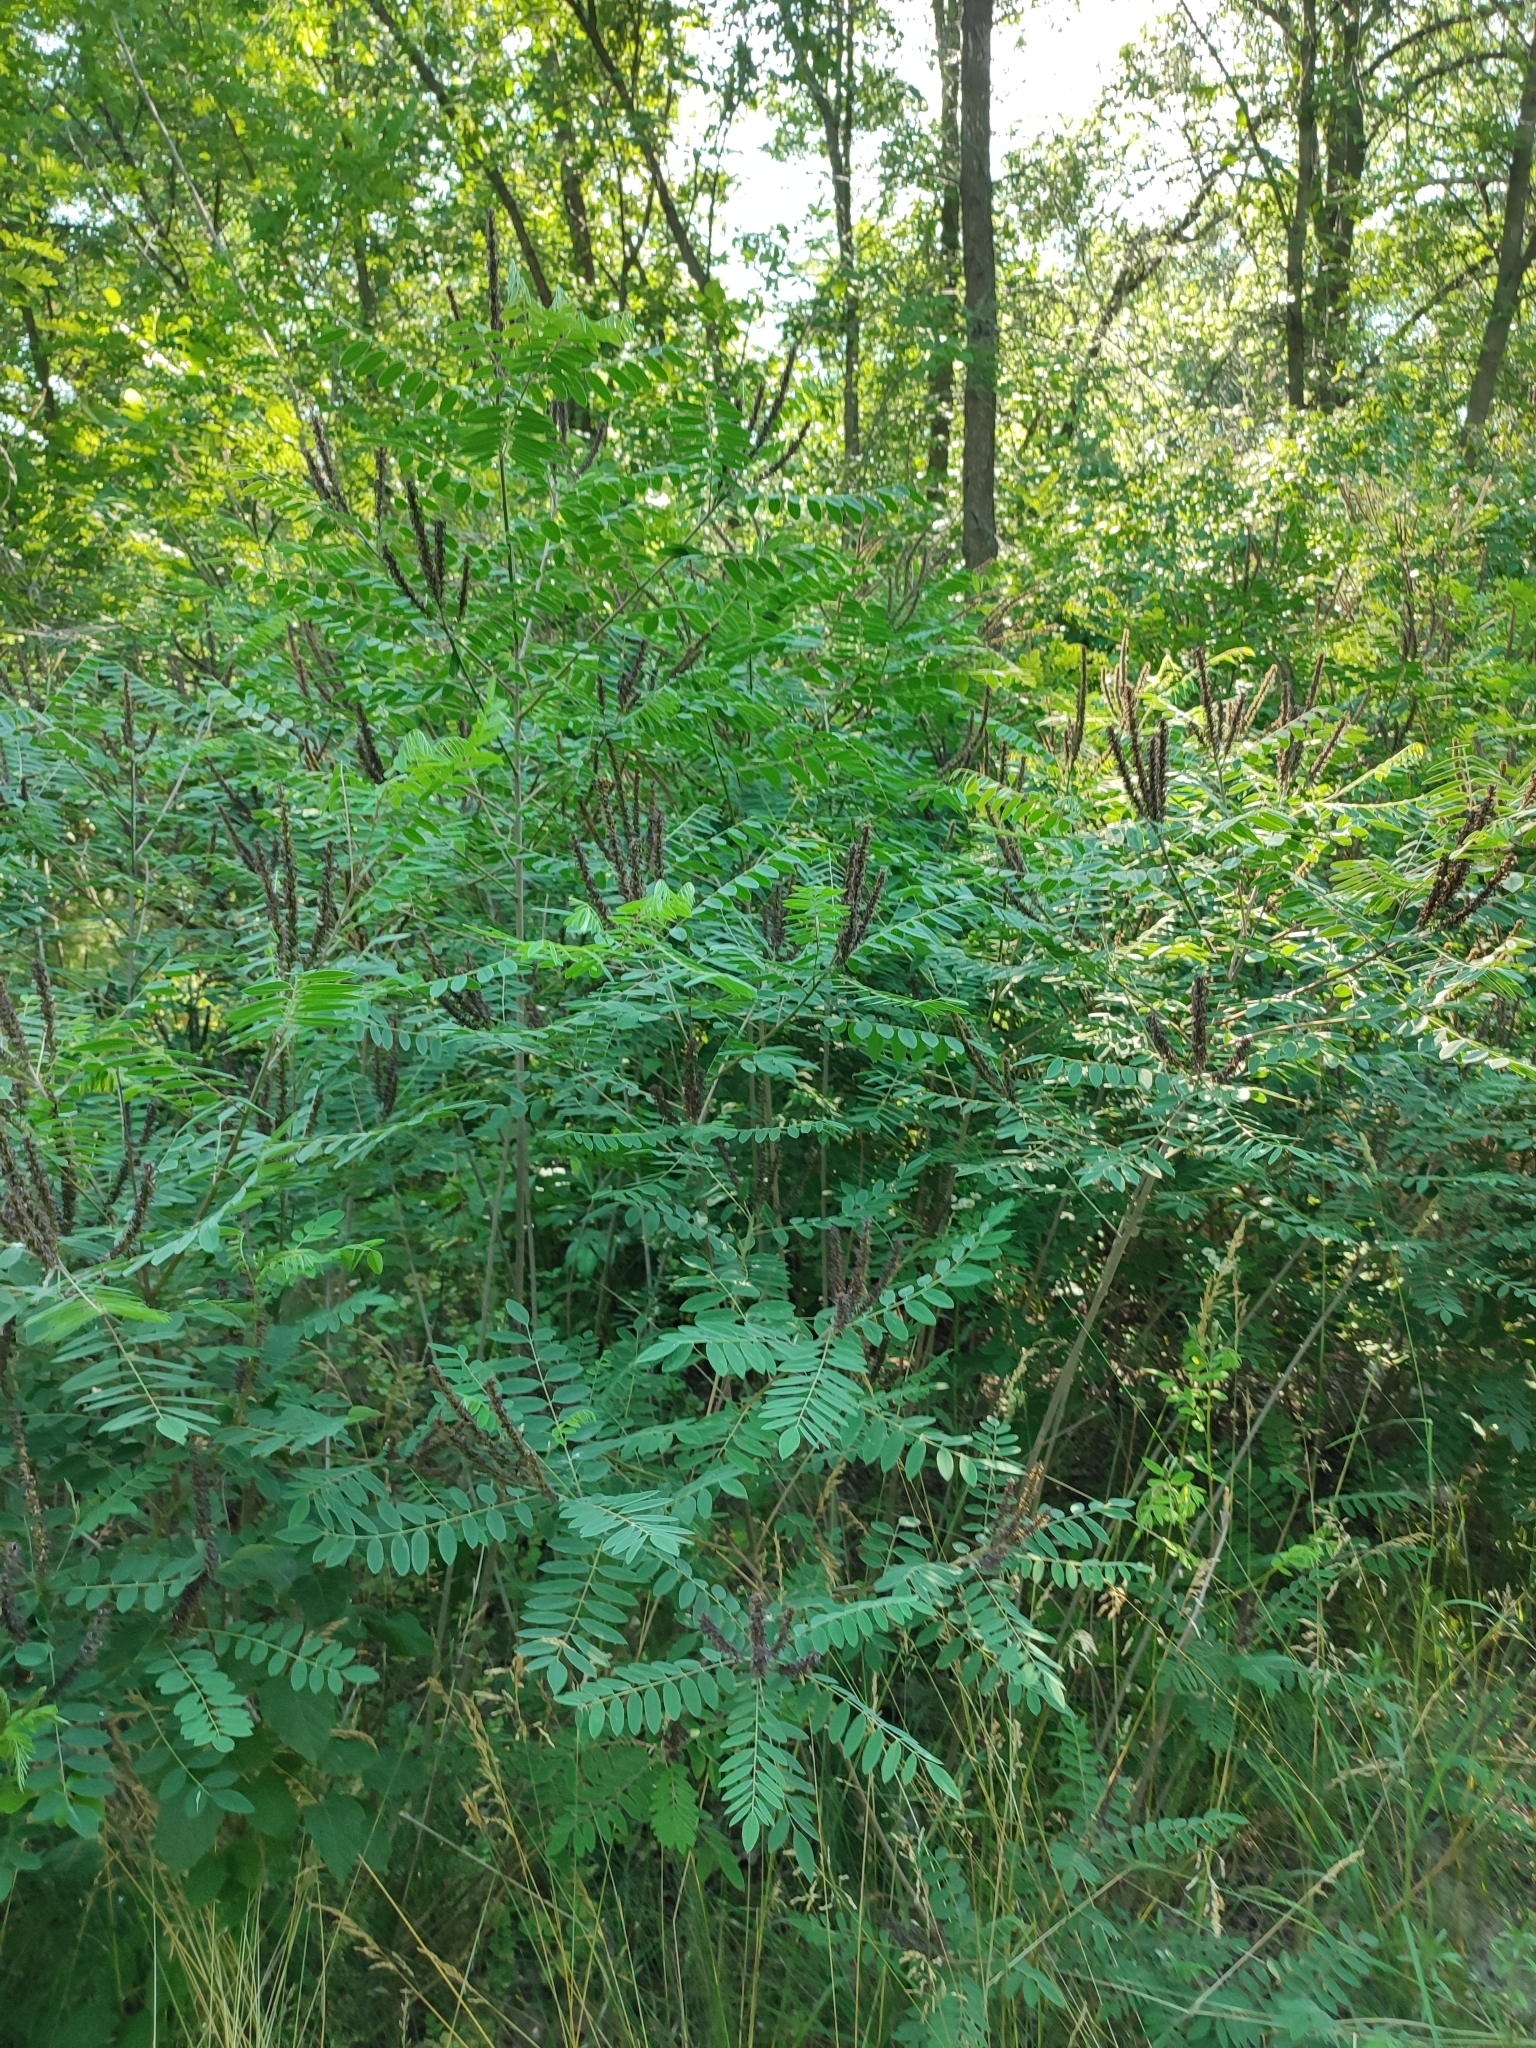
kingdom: Plantae
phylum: Tracheophyta
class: Magnoliopsida
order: Fabales
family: Fabaceae
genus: Amorpha
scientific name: Amorpha fruticosa
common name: False indigo
